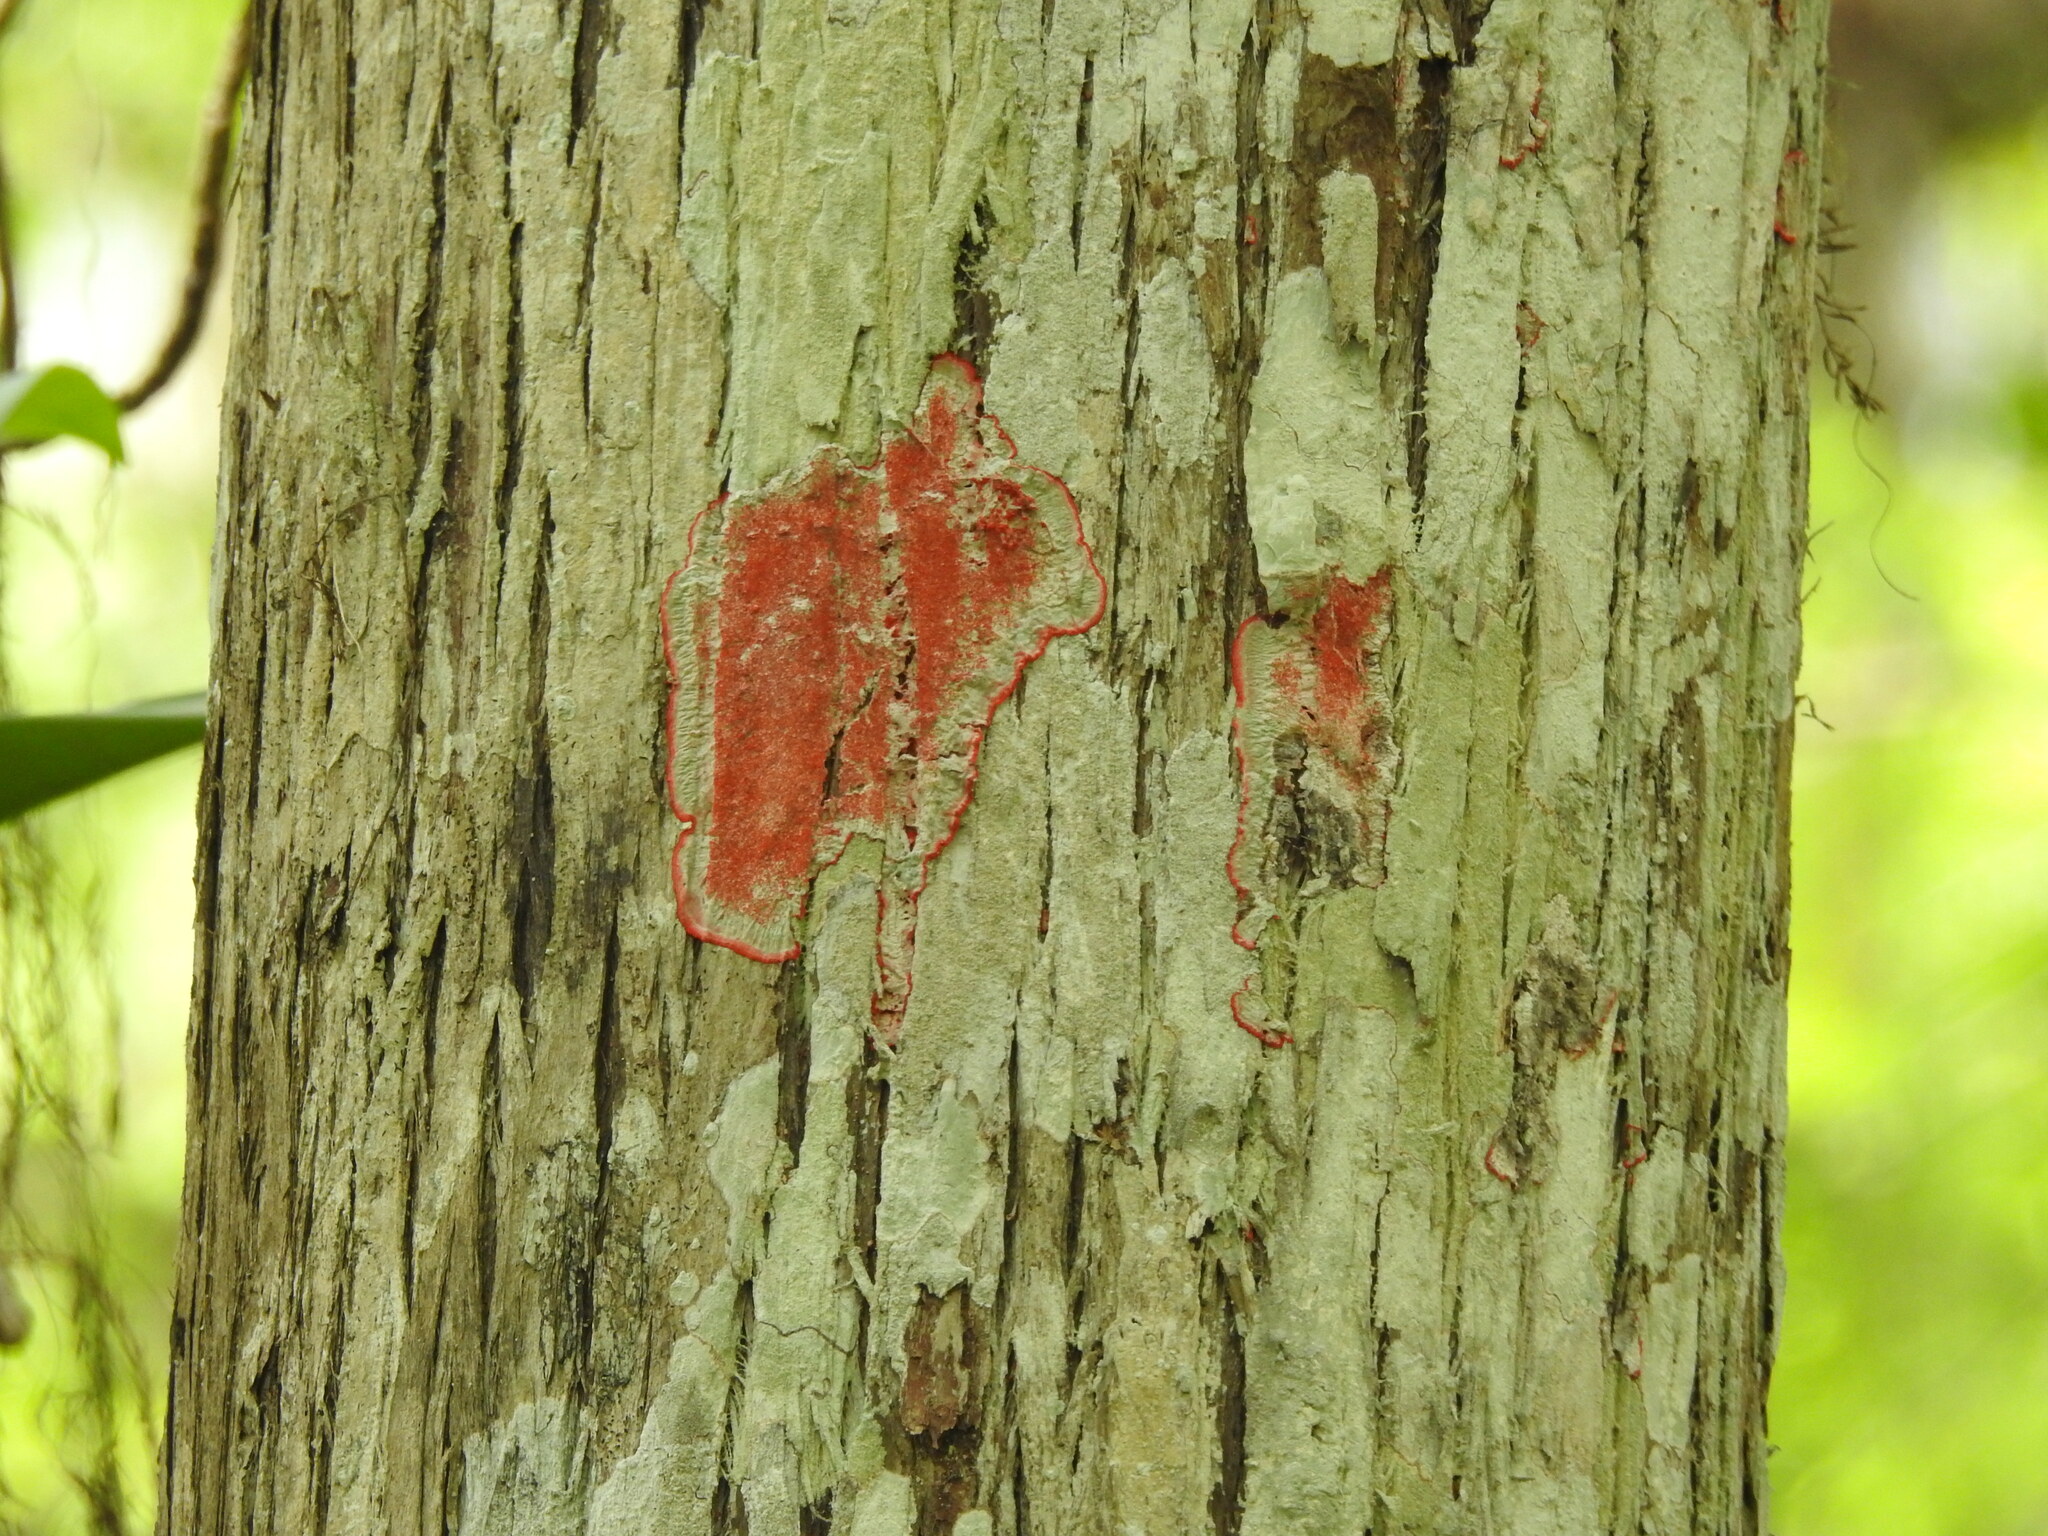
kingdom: Fungi
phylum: Ascomycota
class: Arthoniomycetes
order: Arthoniales
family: Arthoniaceae
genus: Herpothallon
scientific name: Herpothallon rubrocinctum
